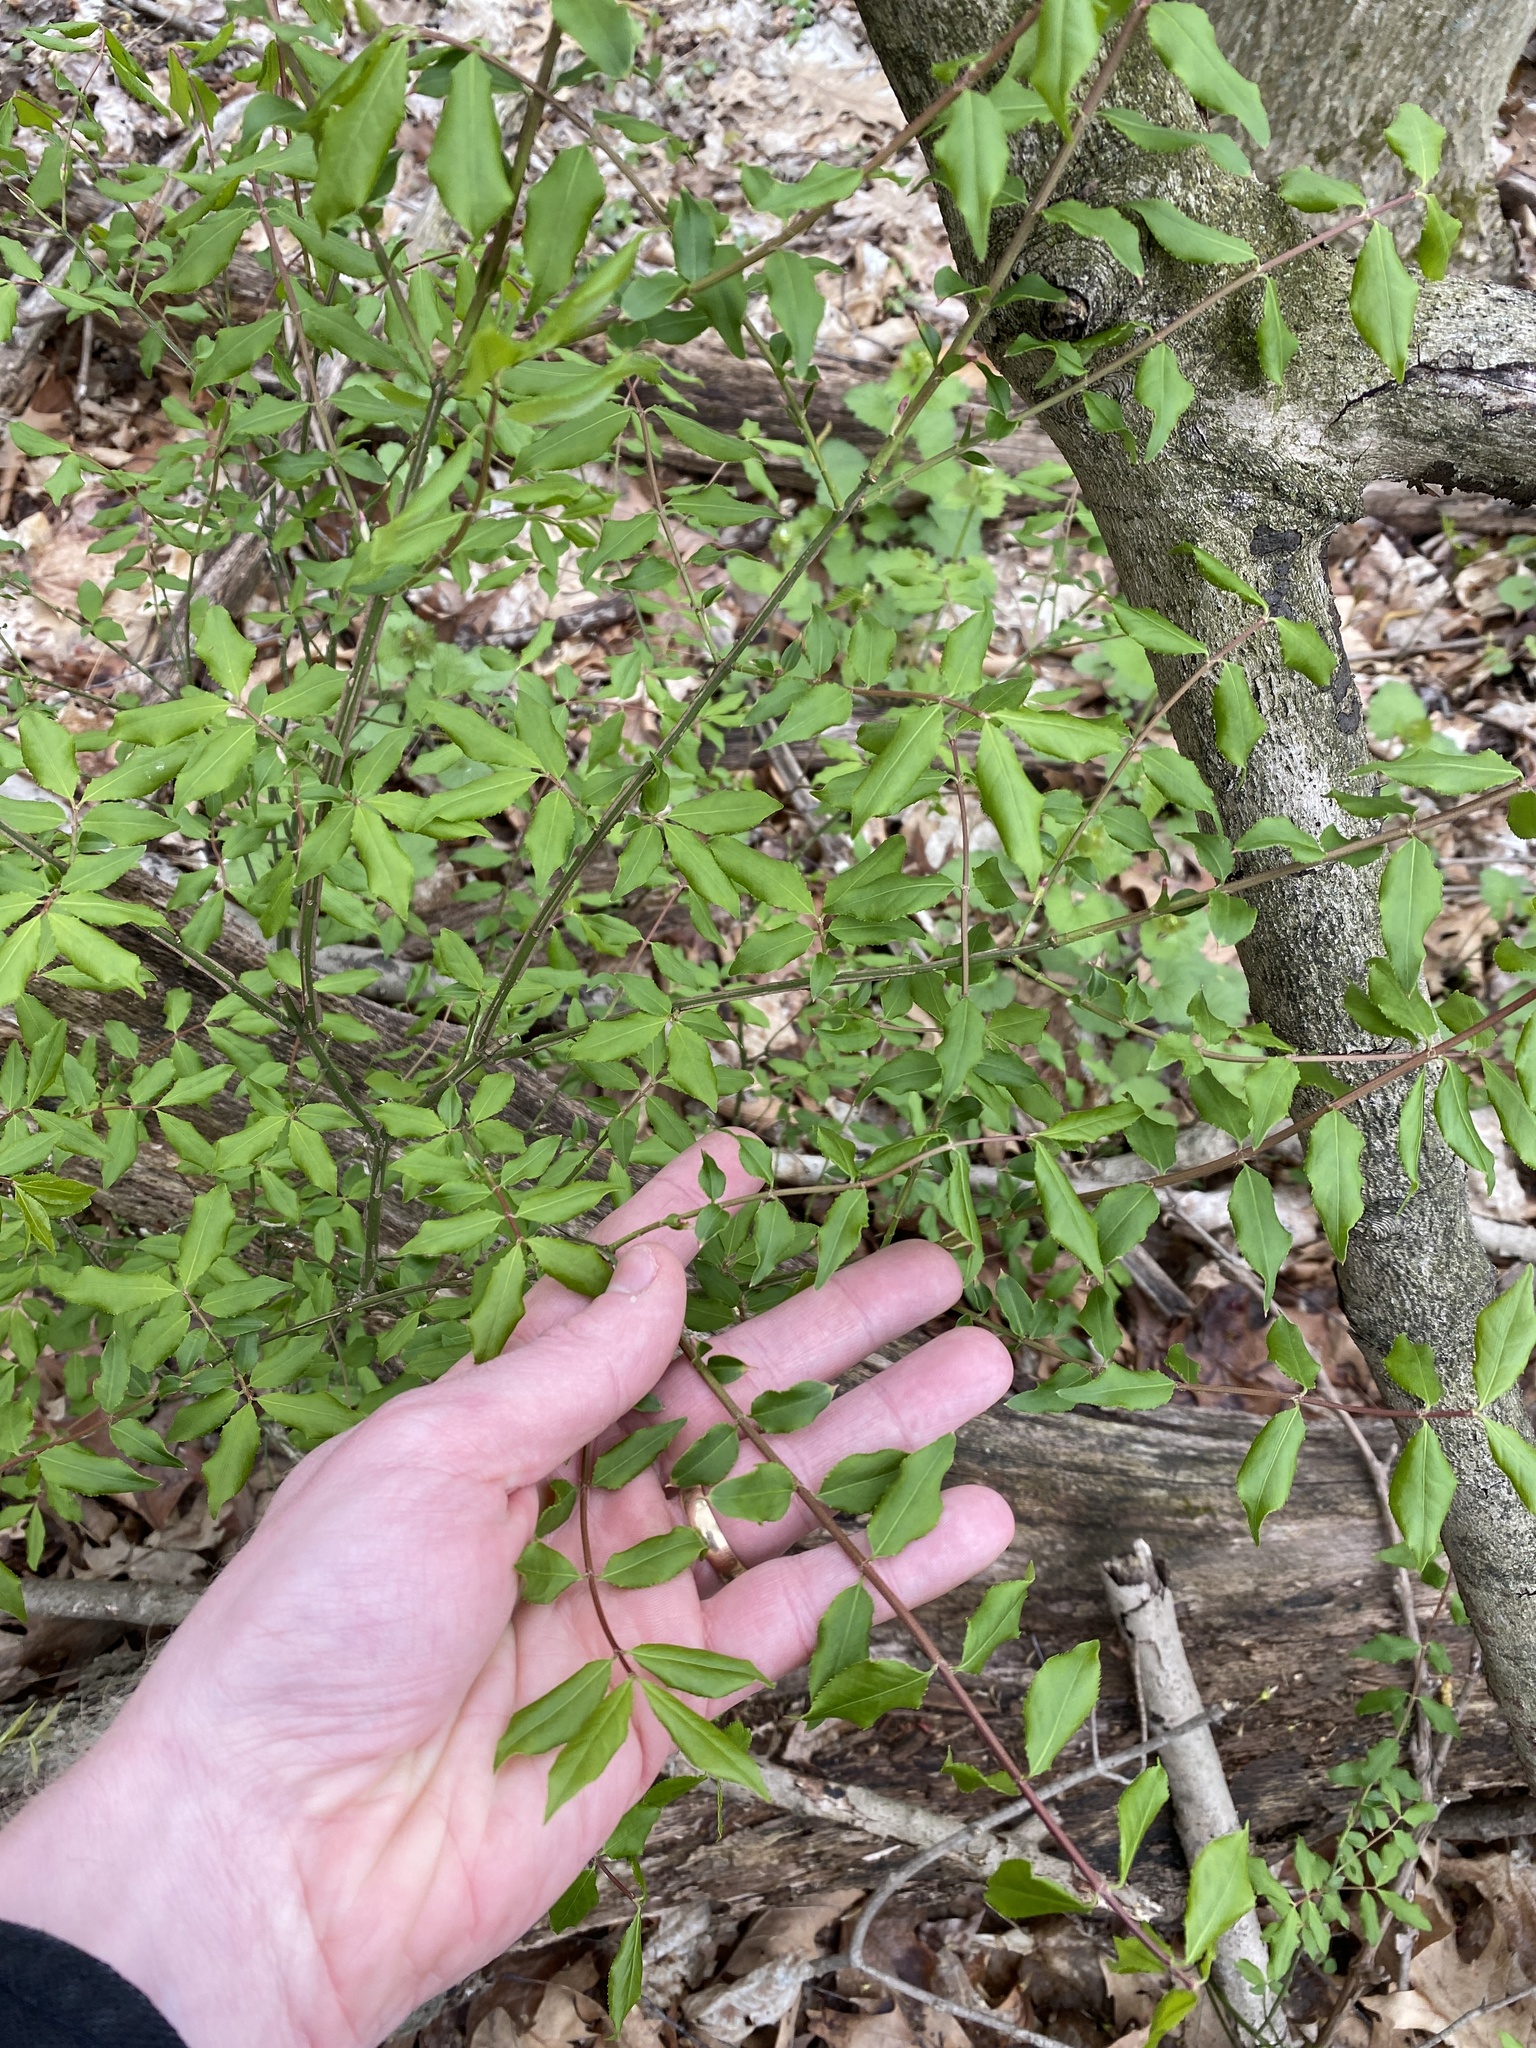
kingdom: Plantae
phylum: Tracheophyta
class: Magnoliopsida
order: Celastrales
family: Celastraceae
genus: Euonymus
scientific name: Euonymus alatus
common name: Winged euonymus
